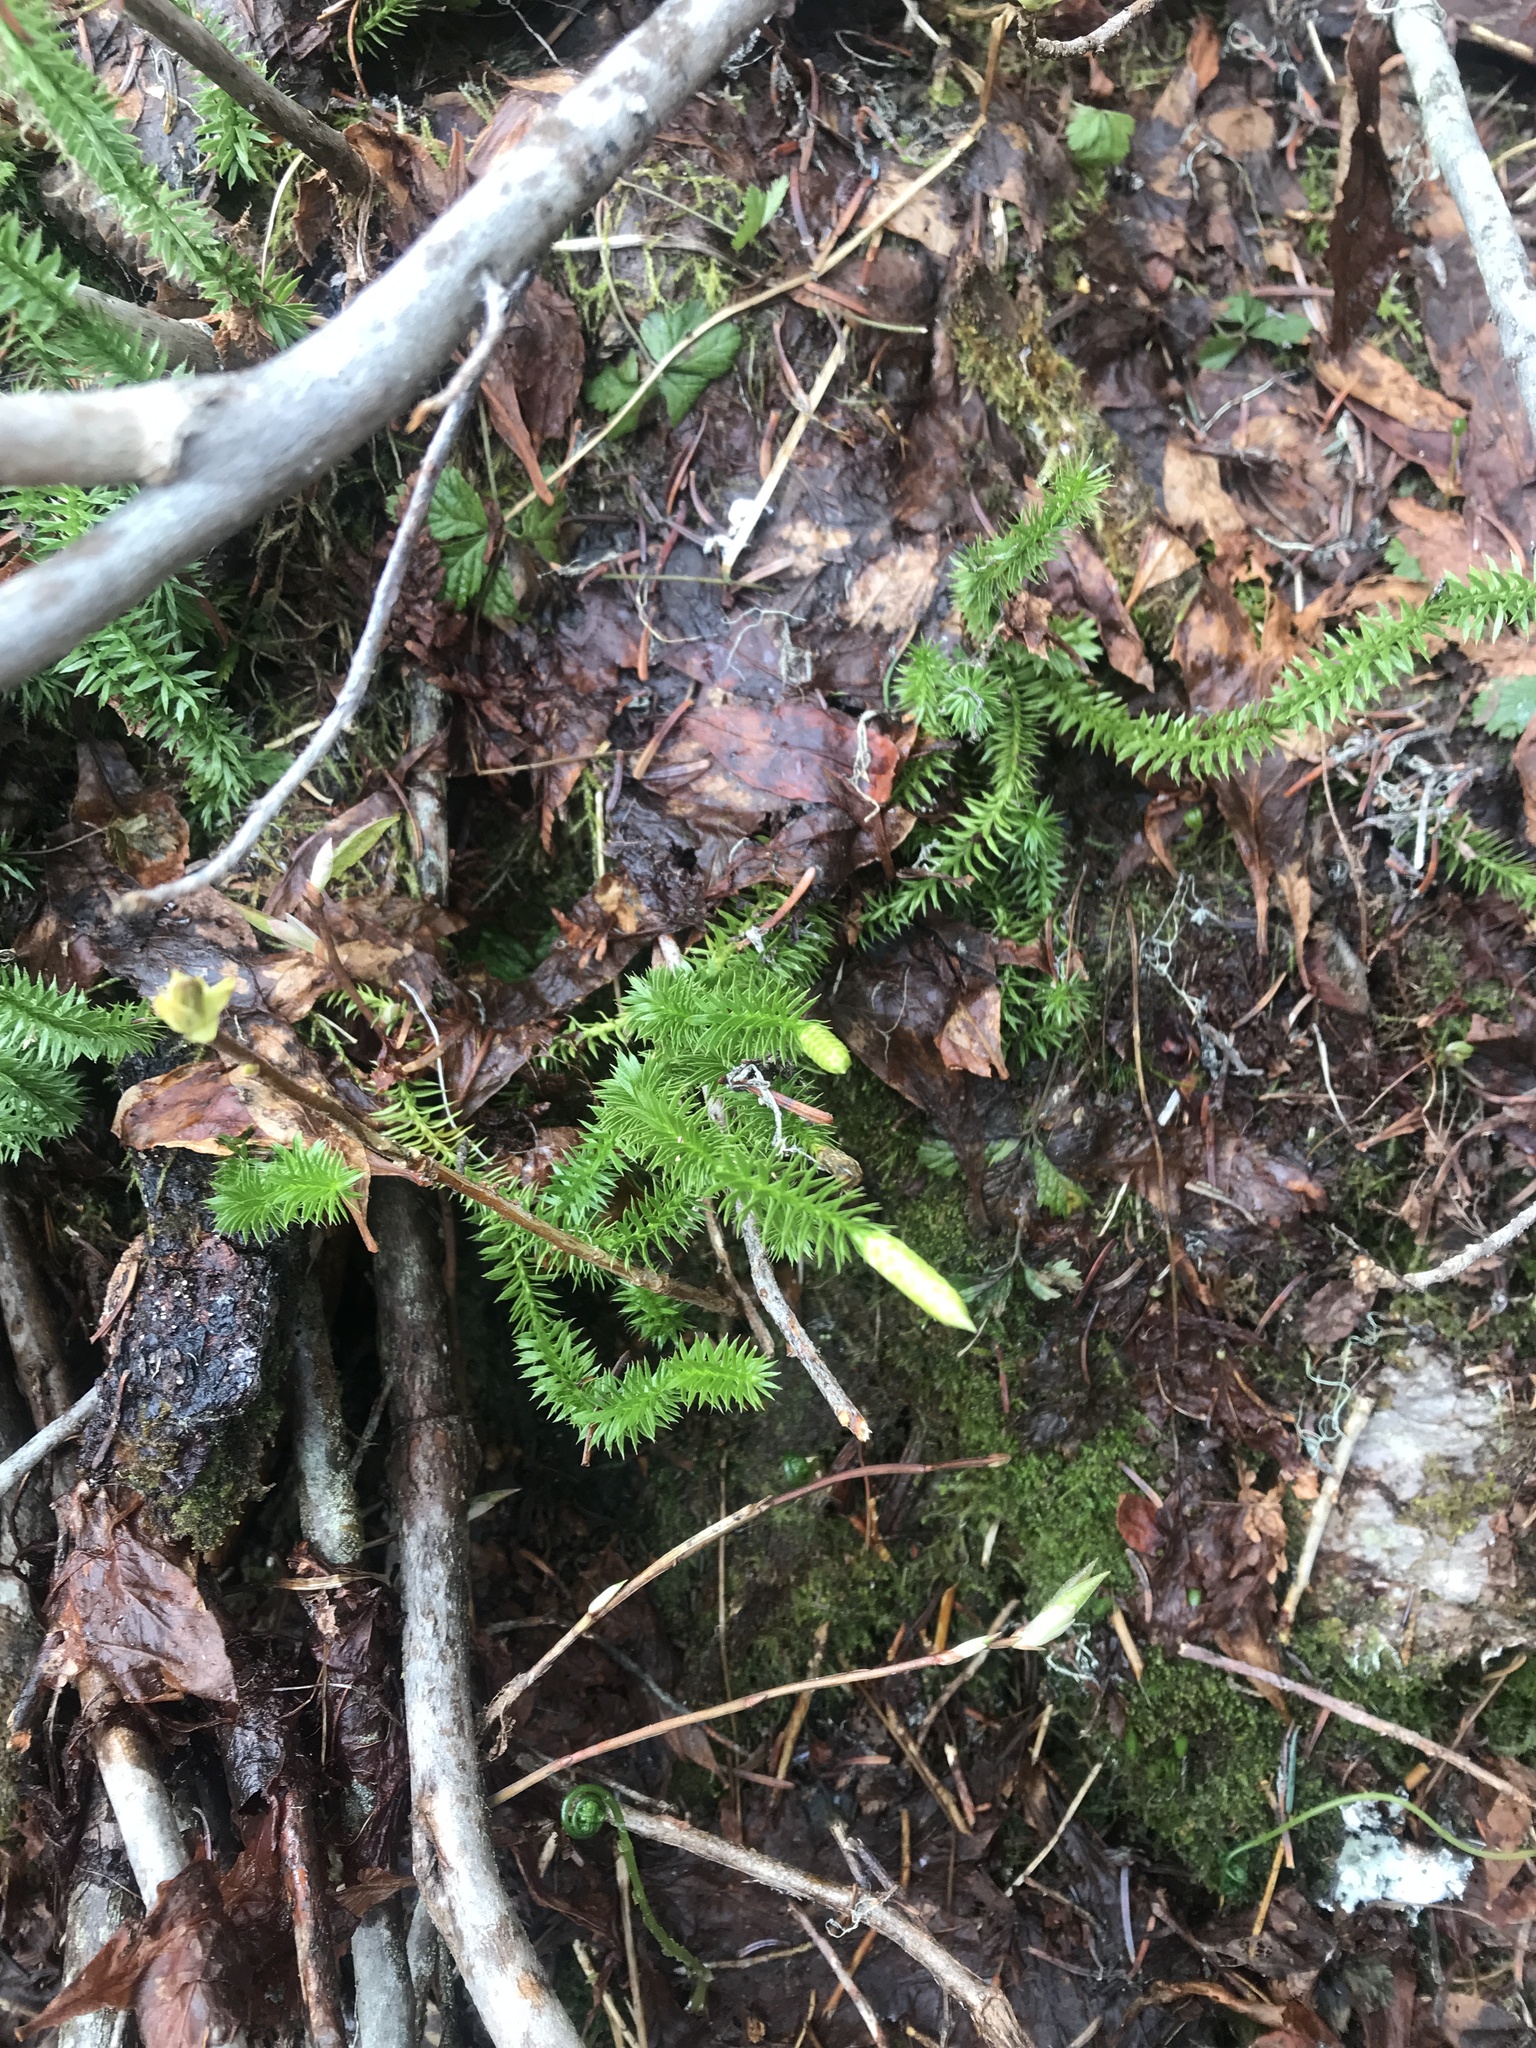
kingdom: Plantae
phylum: Tracheophyta
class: Lycopodiopsida
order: Lycopodiales
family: Lycopodiaceae
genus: Spinulum
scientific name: Spinulum annotinum
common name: Interrupted club-moss
